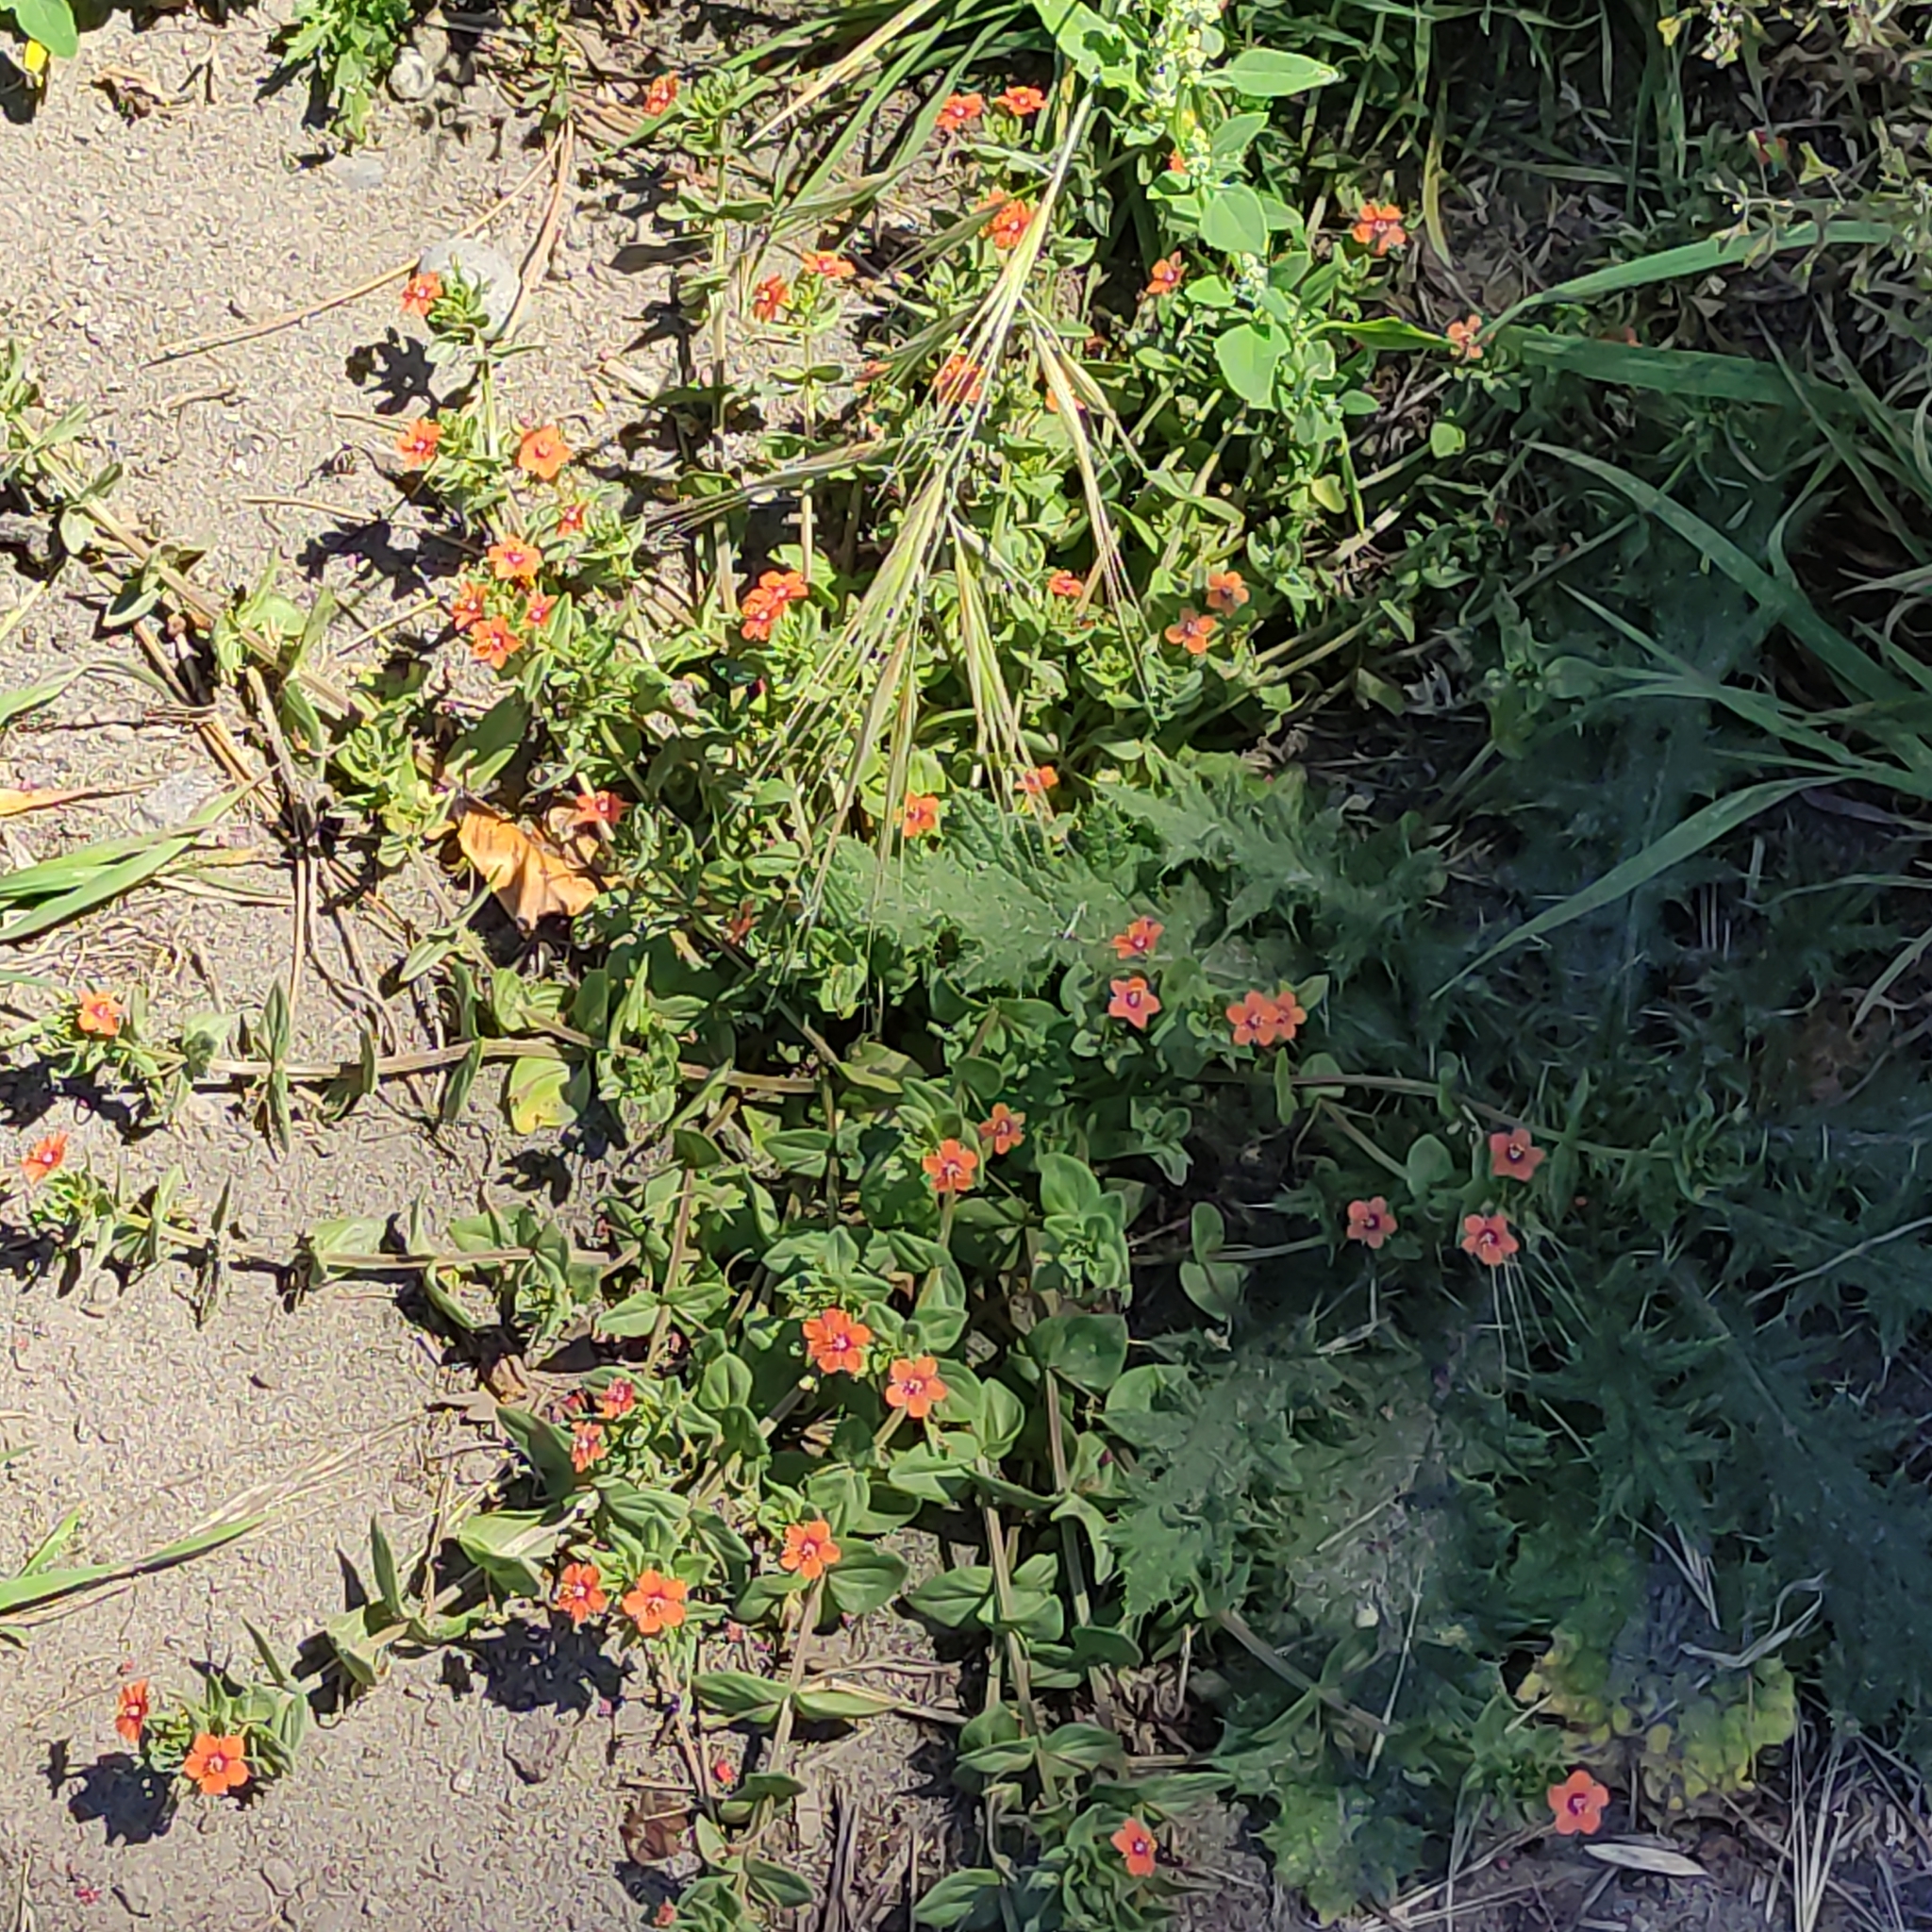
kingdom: Plantae
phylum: Tracheophyta
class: Magnoliopsida
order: Ericales
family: Primulaceae
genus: Lysimachia
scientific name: Lysimachia arvensis
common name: Scarlet pimpernel
